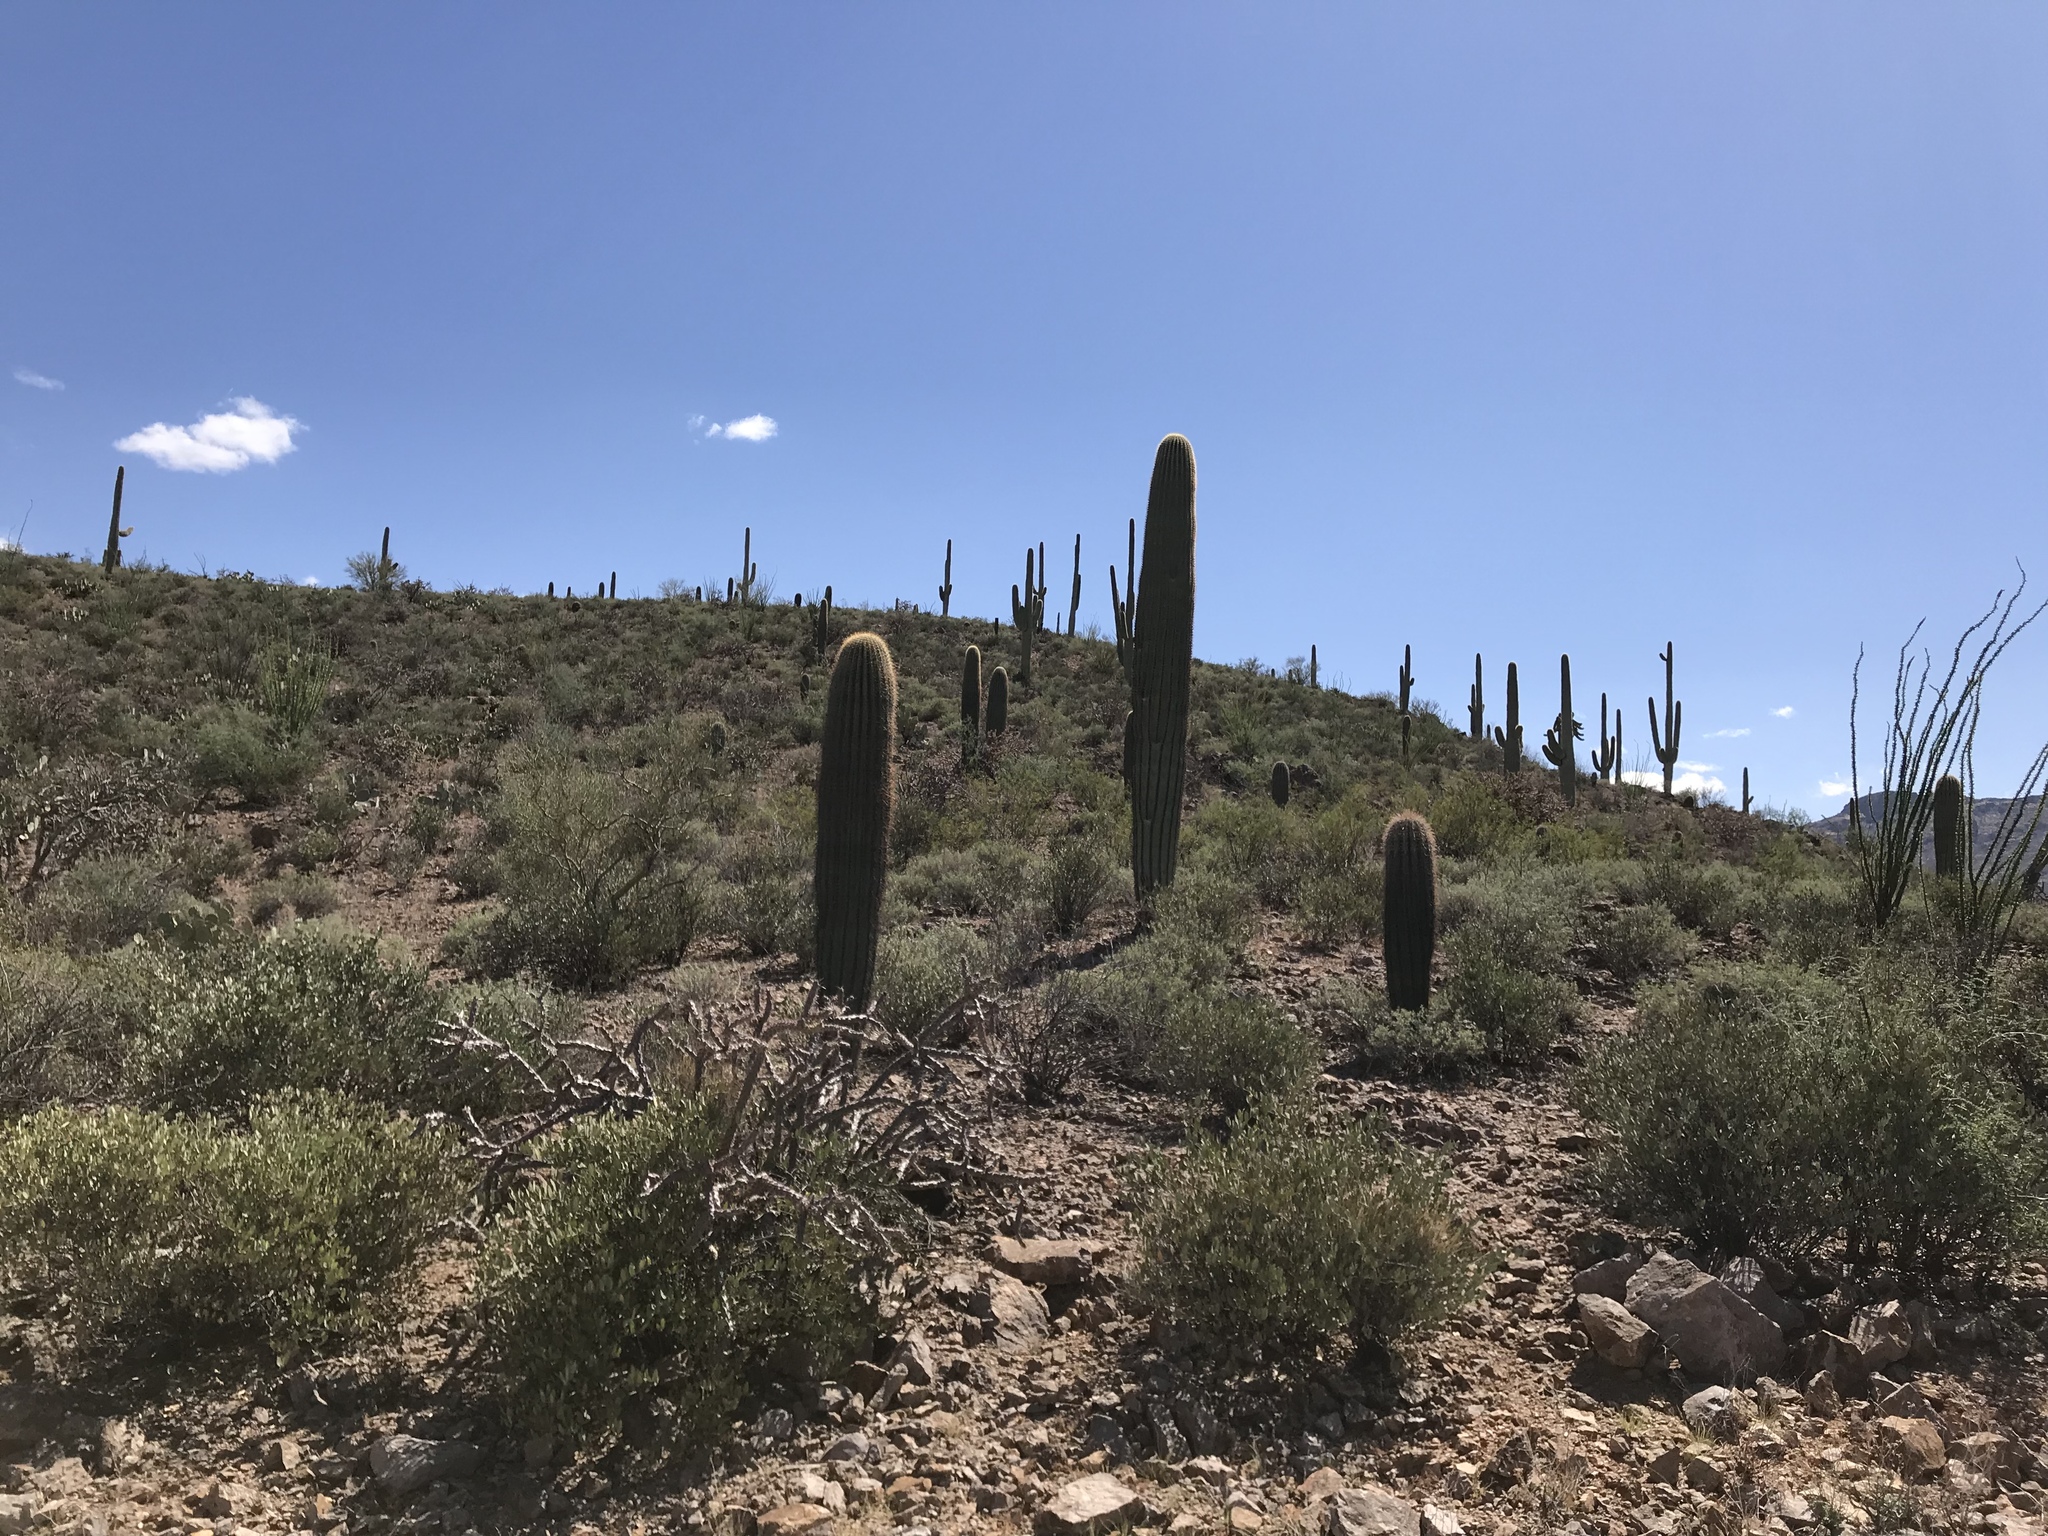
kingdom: Plantae
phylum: Tracheophyta
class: Magnoliopsida
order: Caryophyllales
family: Cactaceae
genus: Carnegiea
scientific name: Carnegiea gigantea
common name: Saguaro
